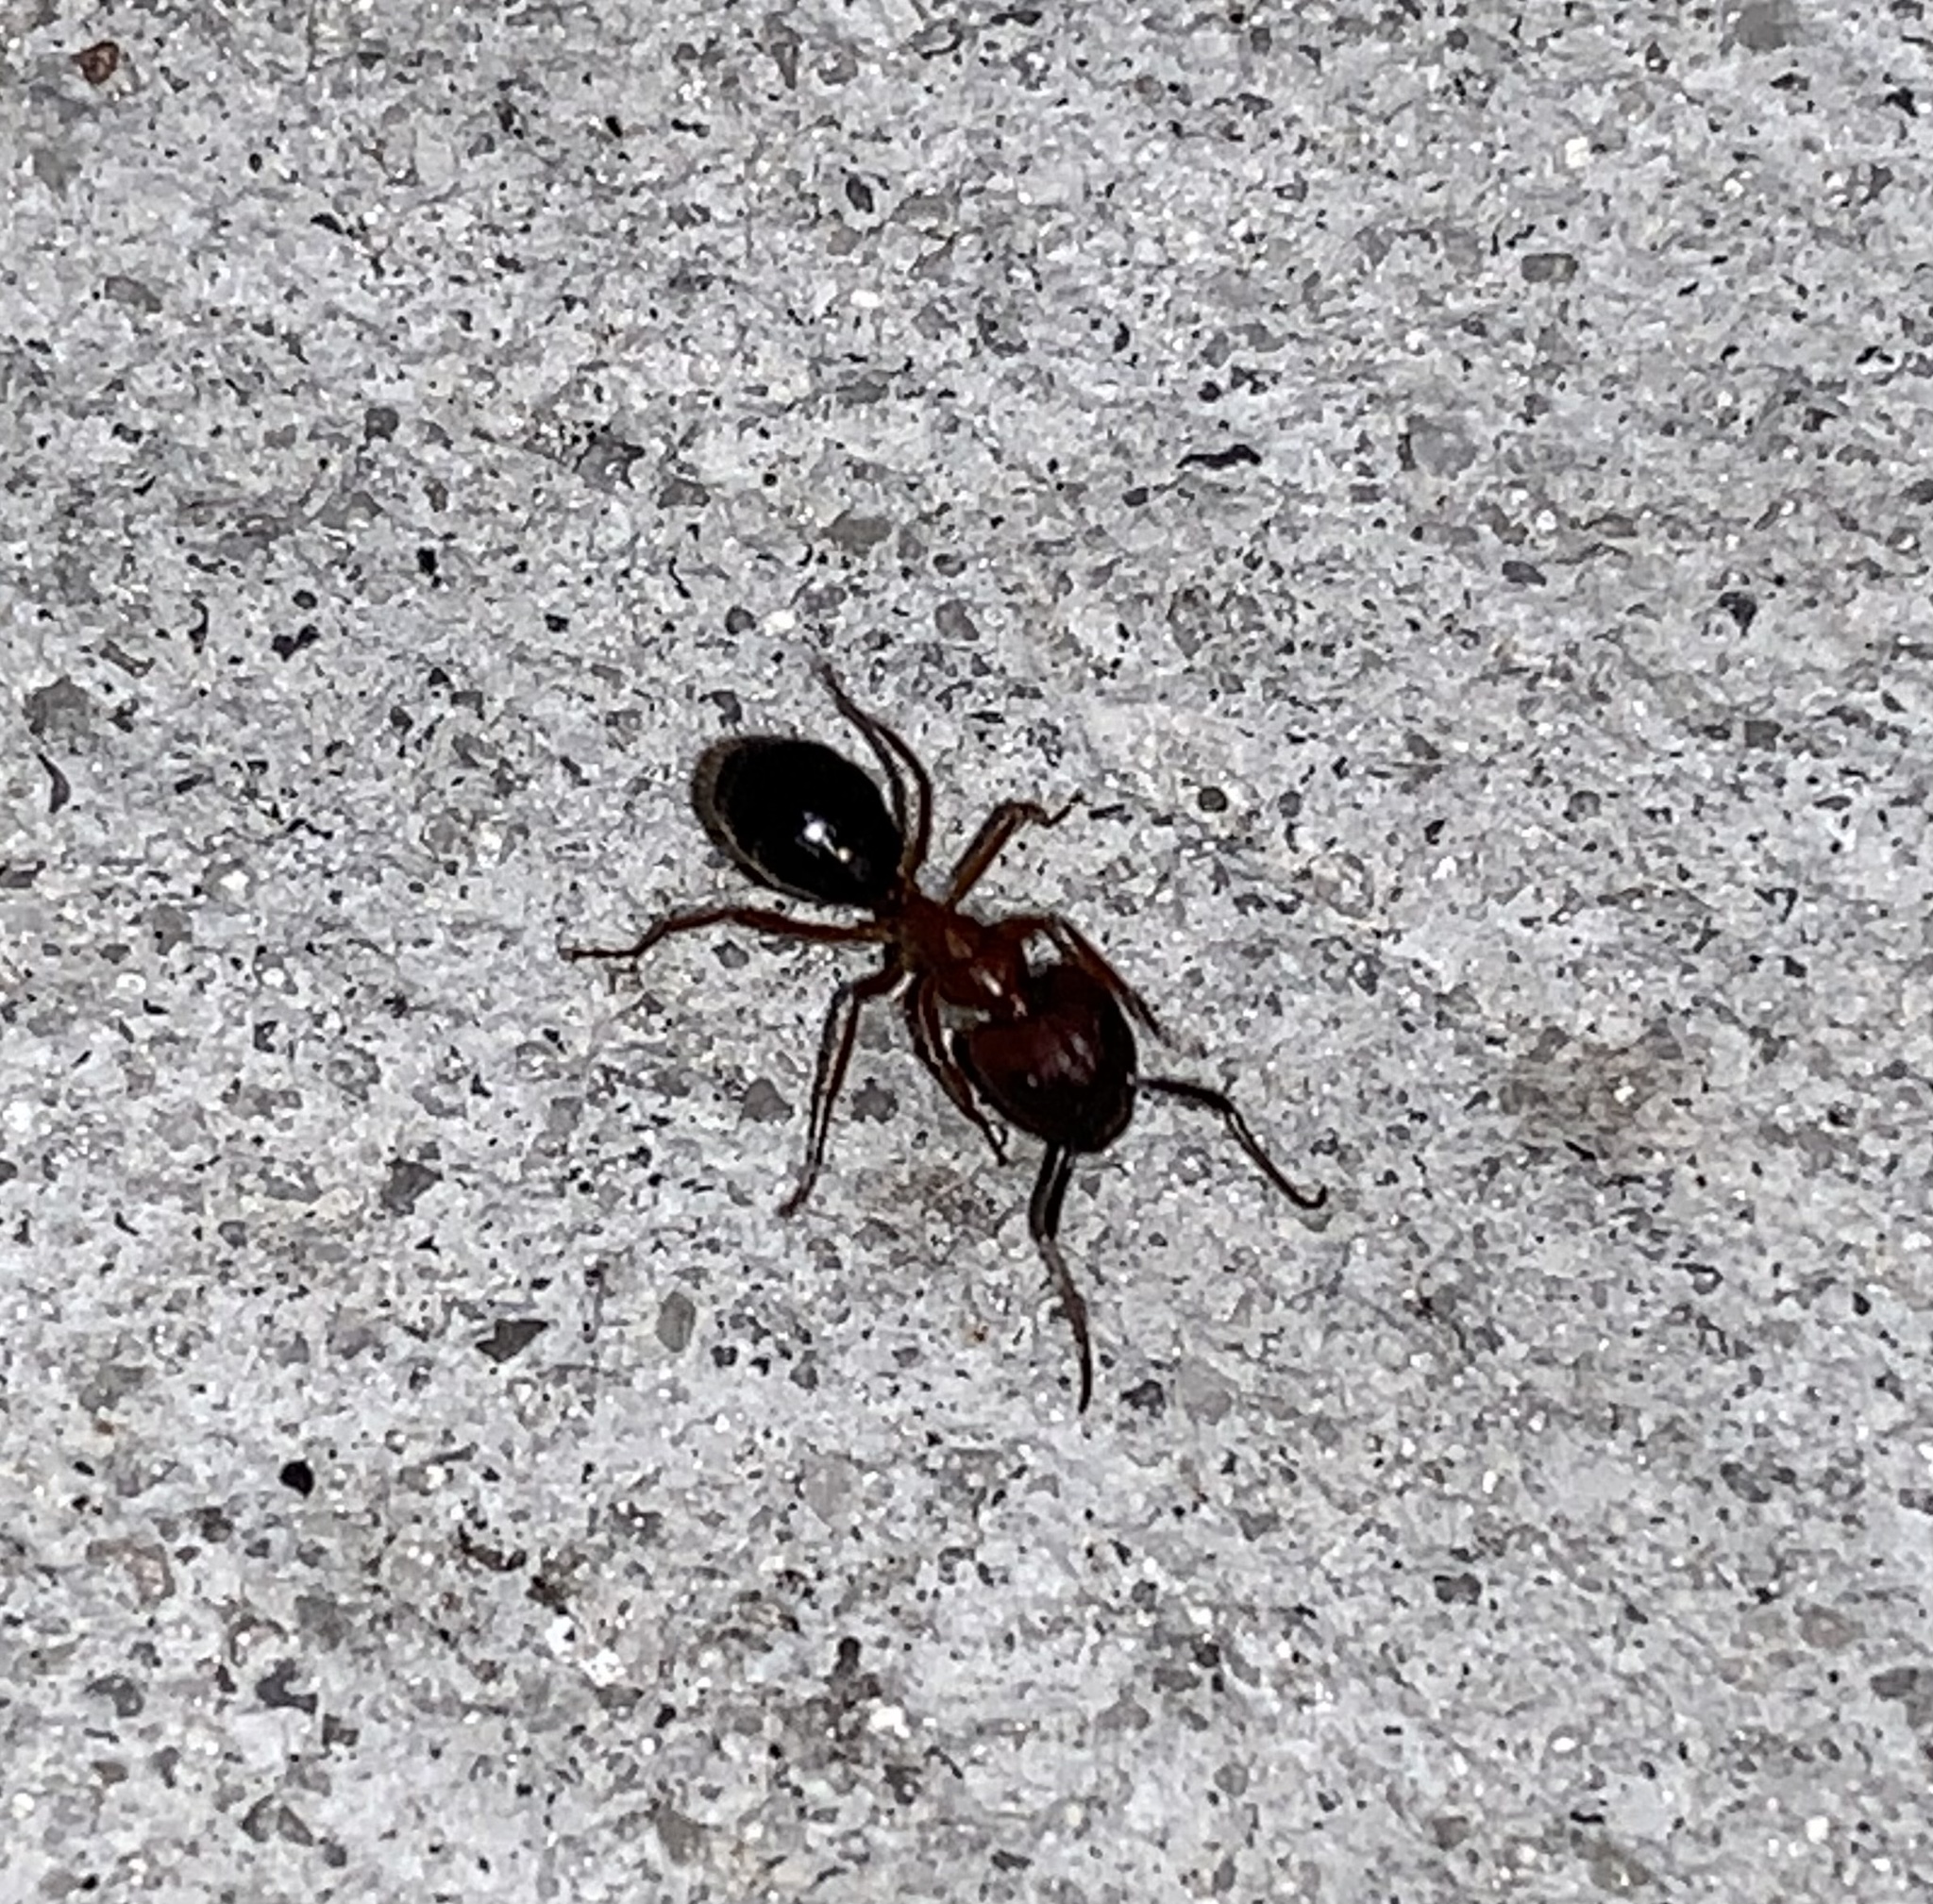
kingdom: Animalia
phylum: Arthropoda
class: Insecta
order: Hymenoptera
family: Formicidae
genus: Camponotus
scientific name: Camponotus floridanus
